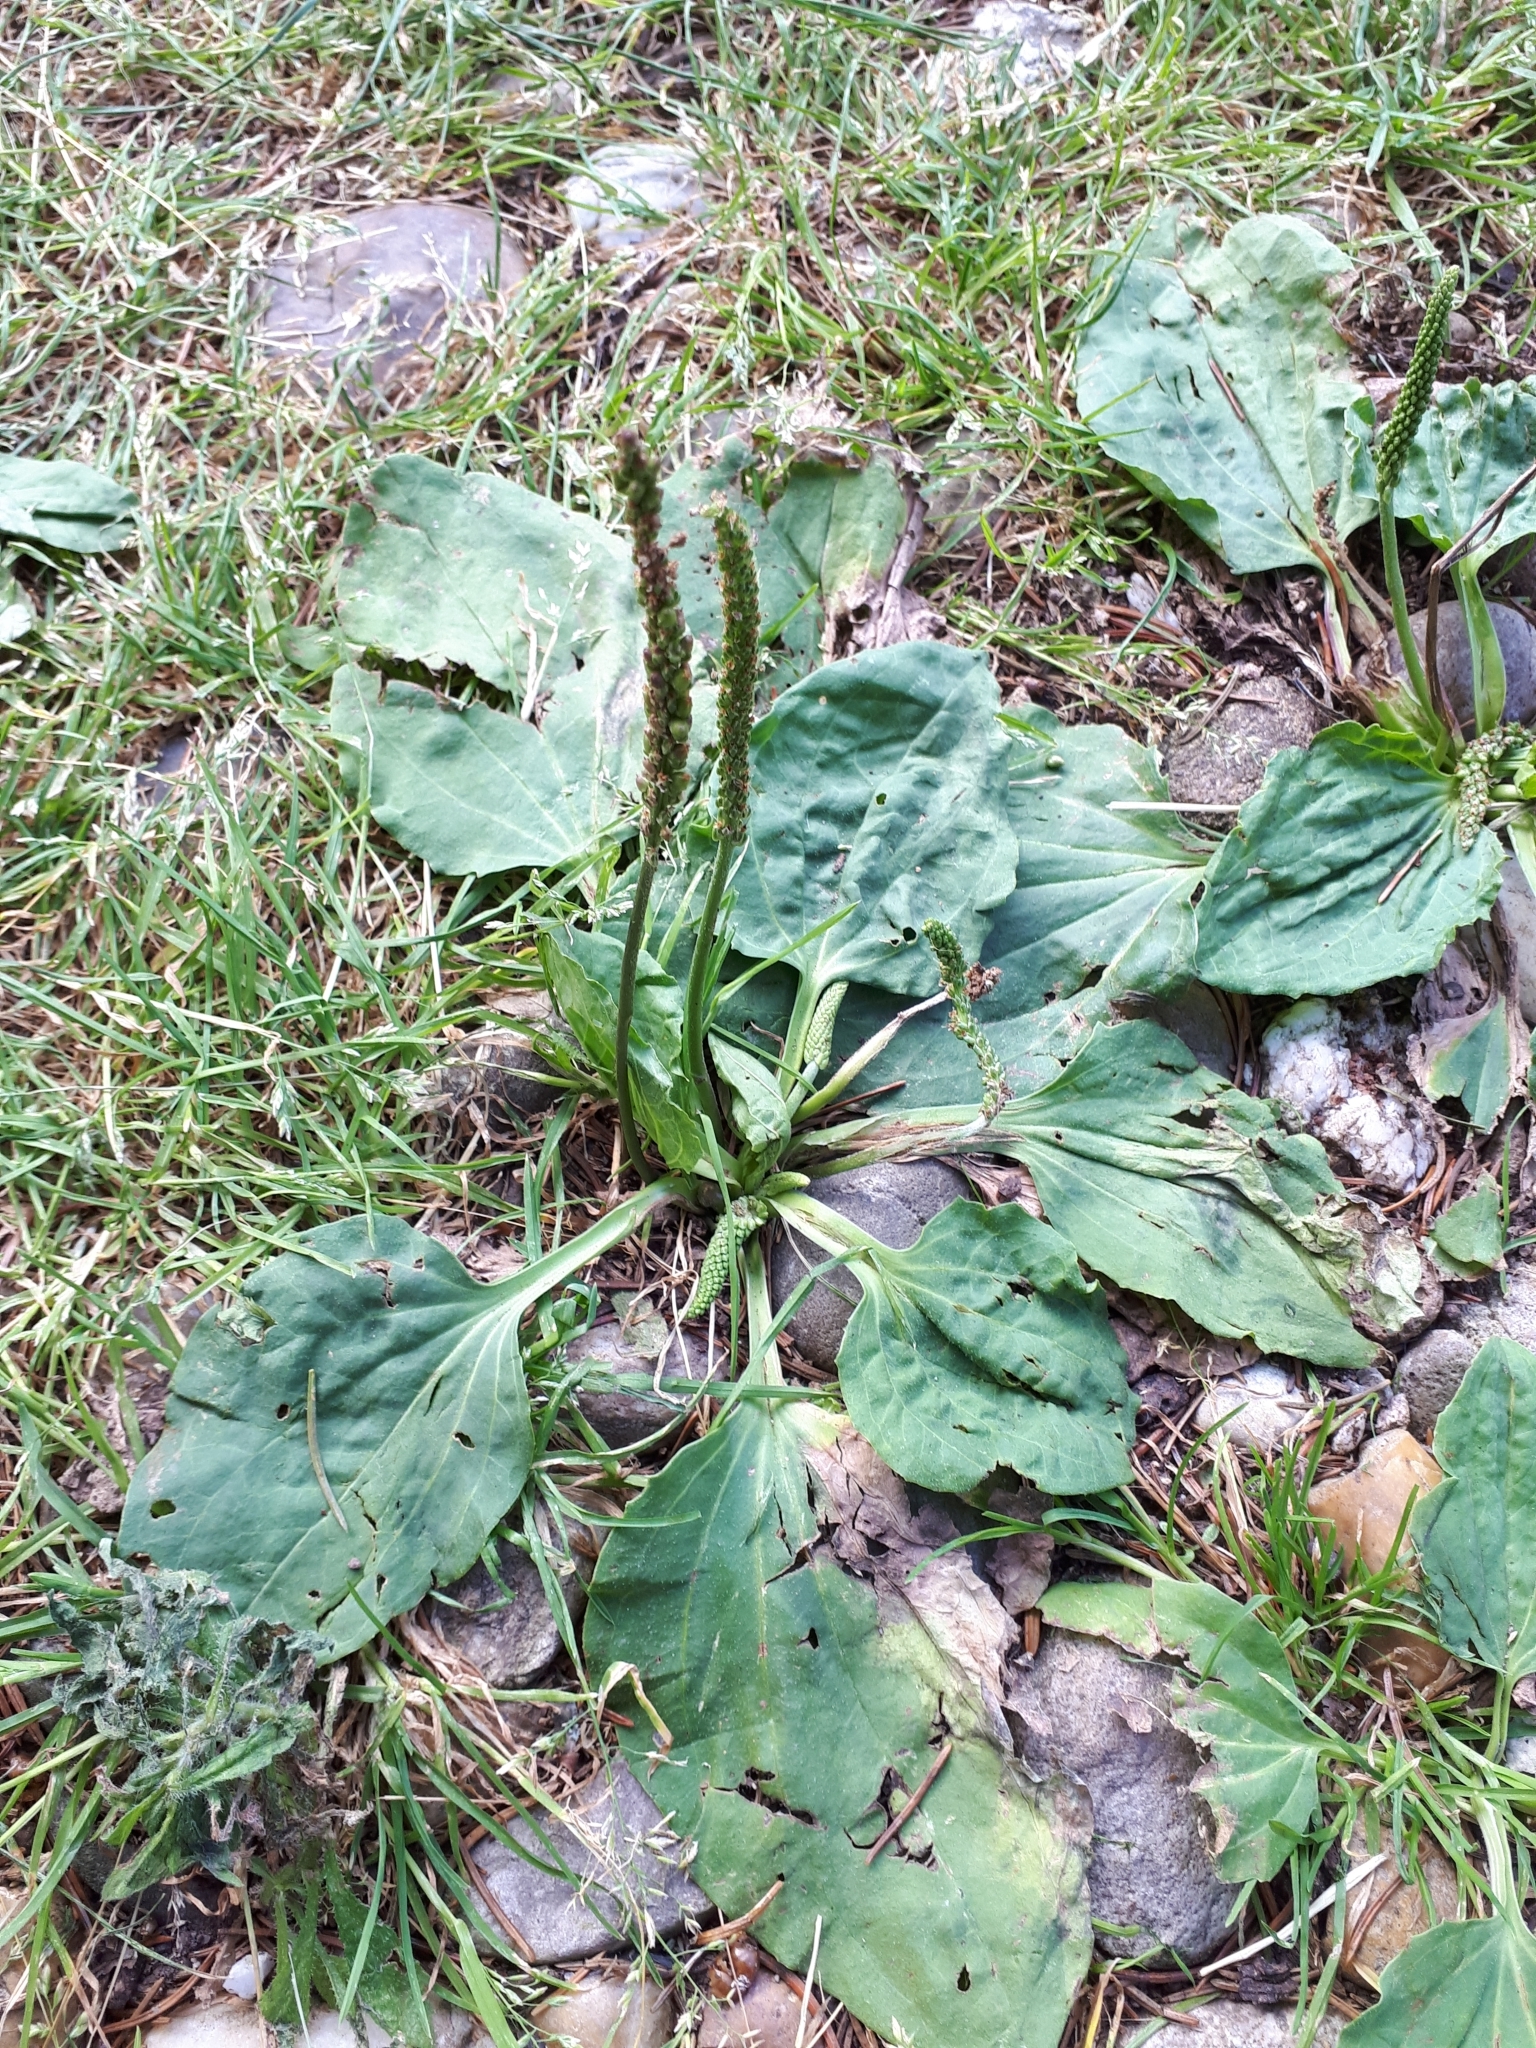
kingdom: Plantae
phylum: Tracheophyta
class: Magnoliopsida
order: Lamiales
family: Plantaginaceae
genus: Plantago
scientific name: Plantago major
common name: Common plantain
